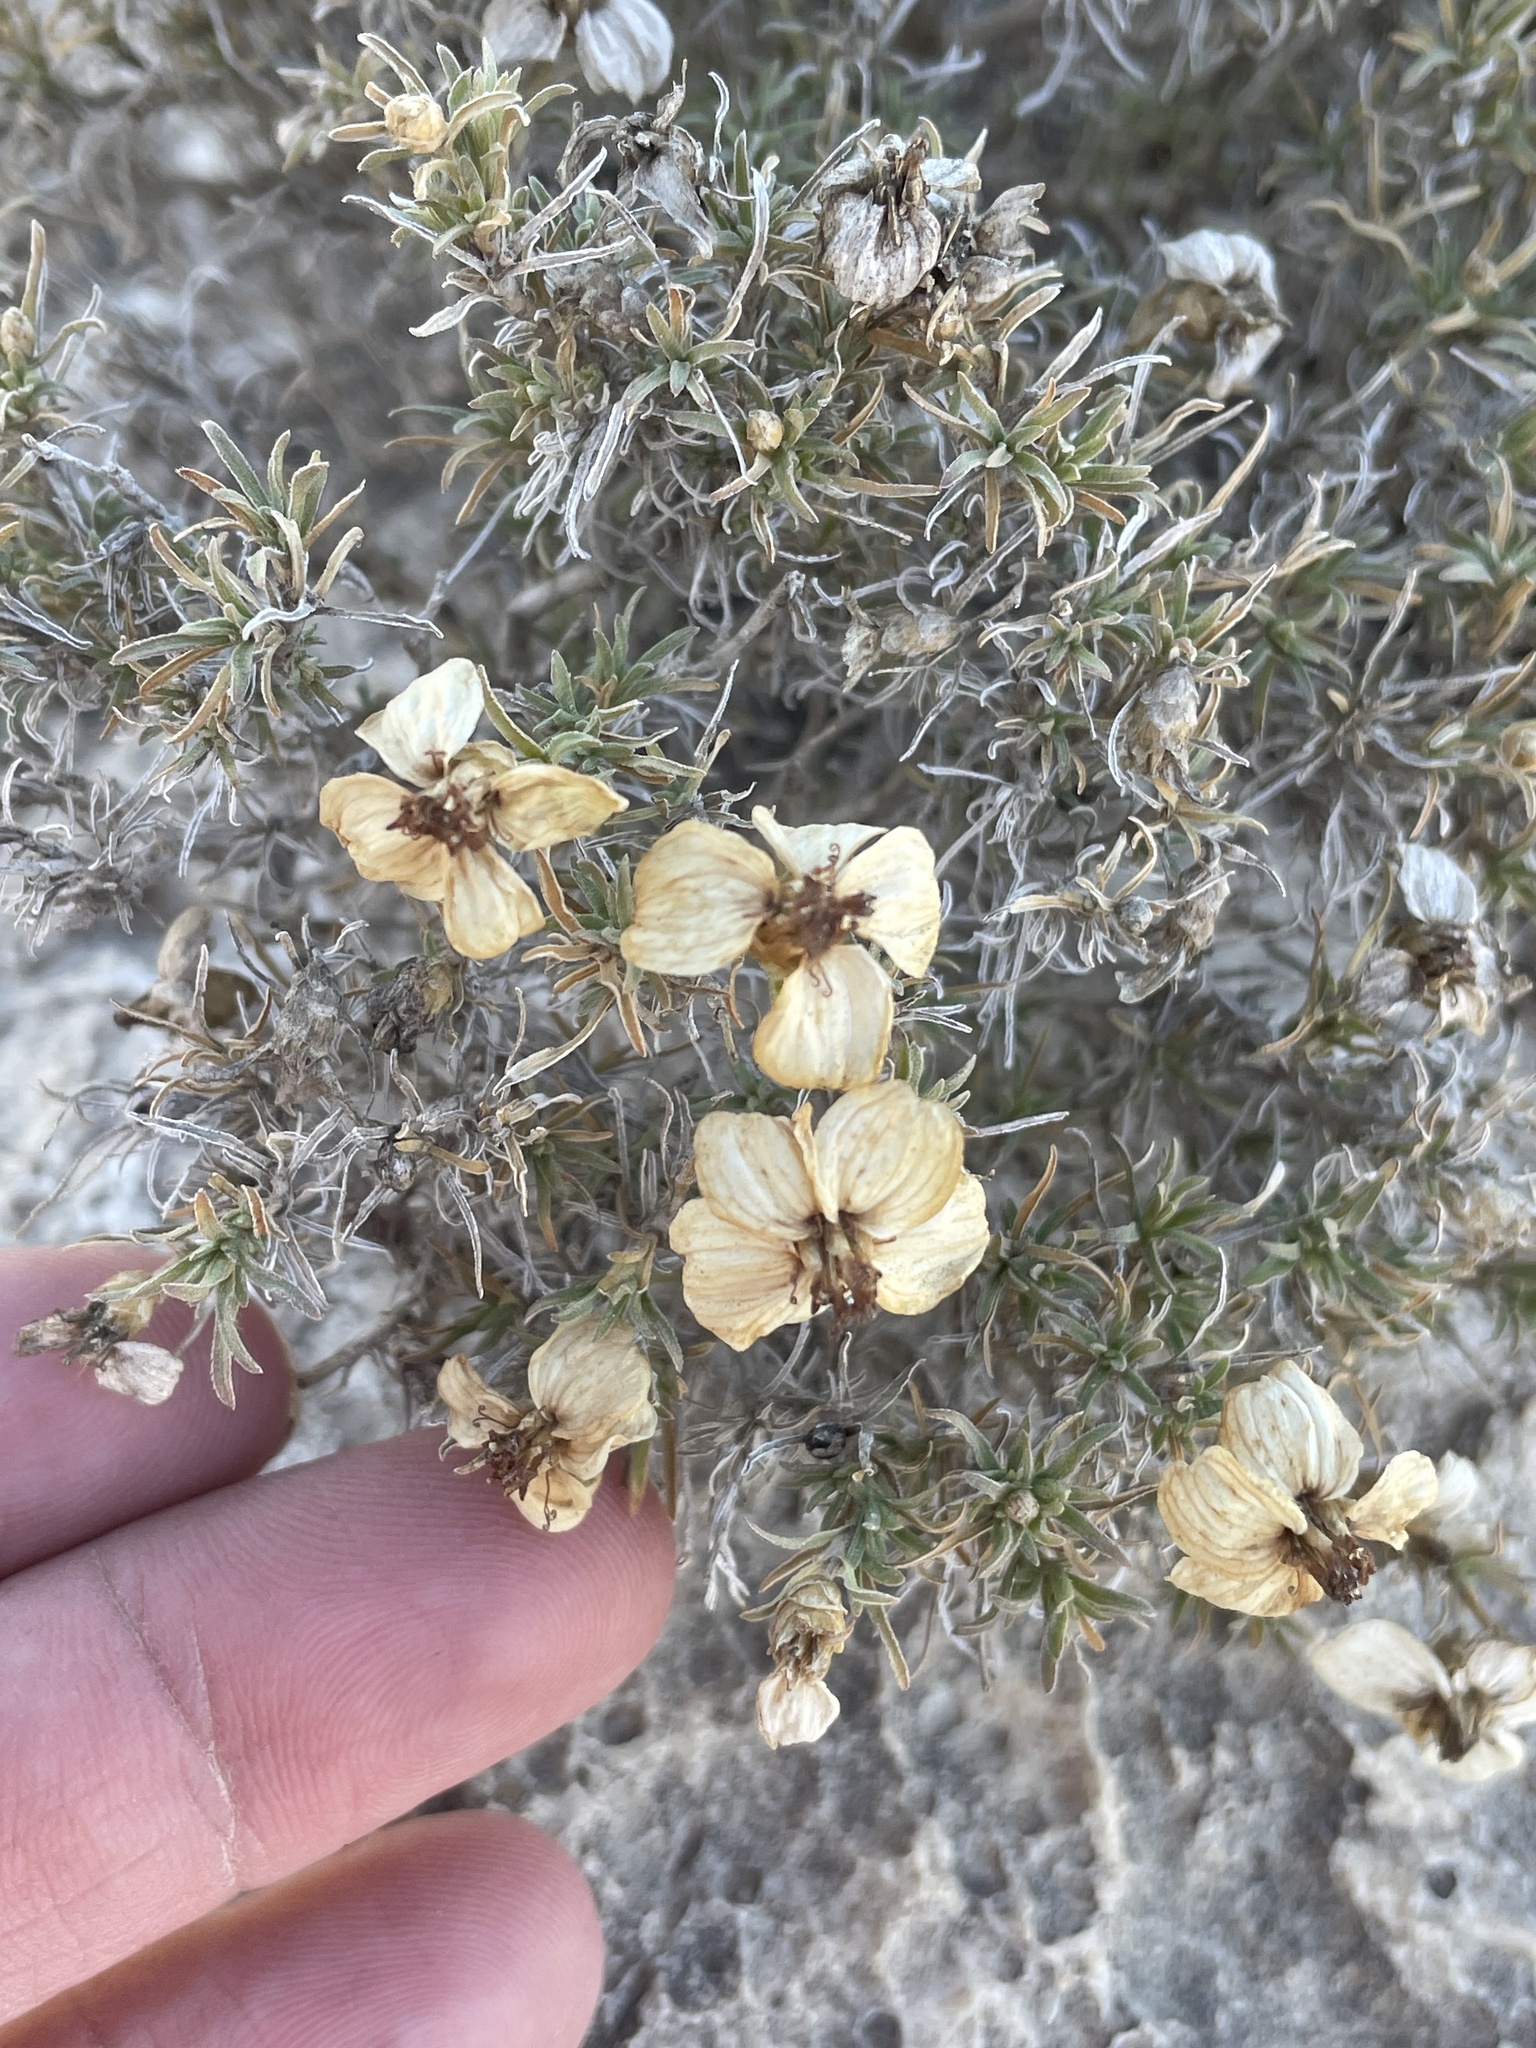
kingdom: Plantae
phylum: Tracheophyta
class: Magnoliopsida
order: Asterales
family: Asteraceae
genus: Zinnia
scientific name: Zinnia acerosa
